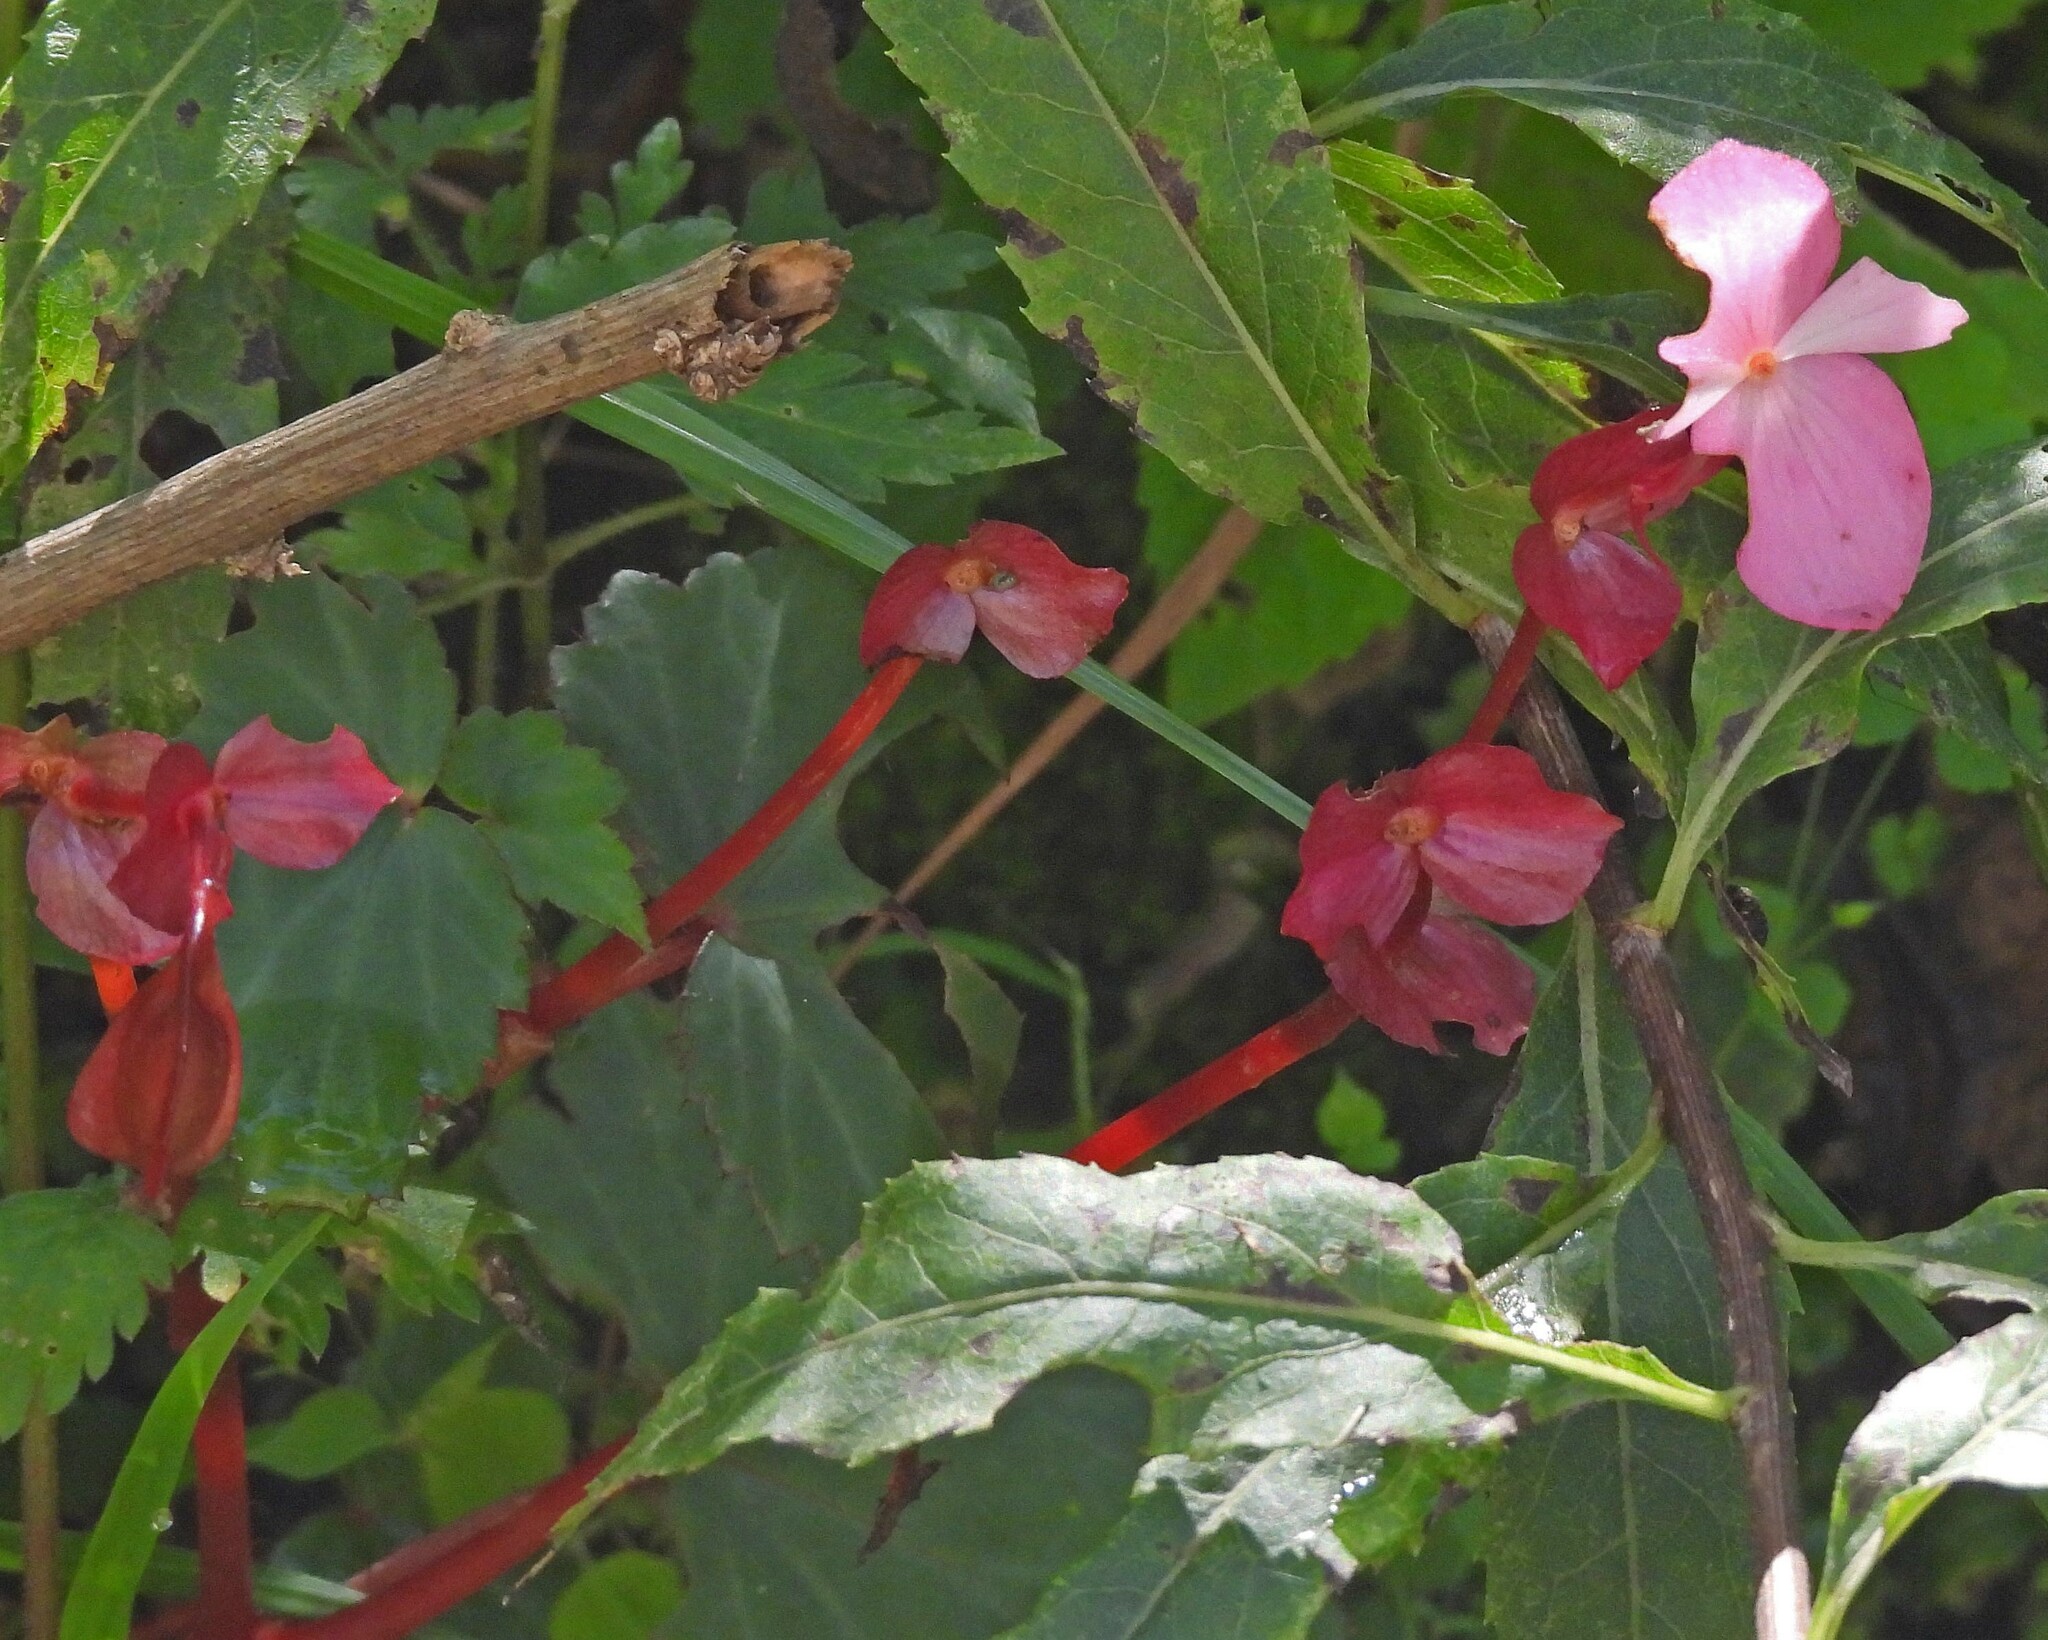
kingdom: Plantae
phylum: Tracheophyta
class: Magnoliopsida
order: Cucurbitales
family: Begoniaceae
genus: Begonia
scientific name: Begonia micranthera
